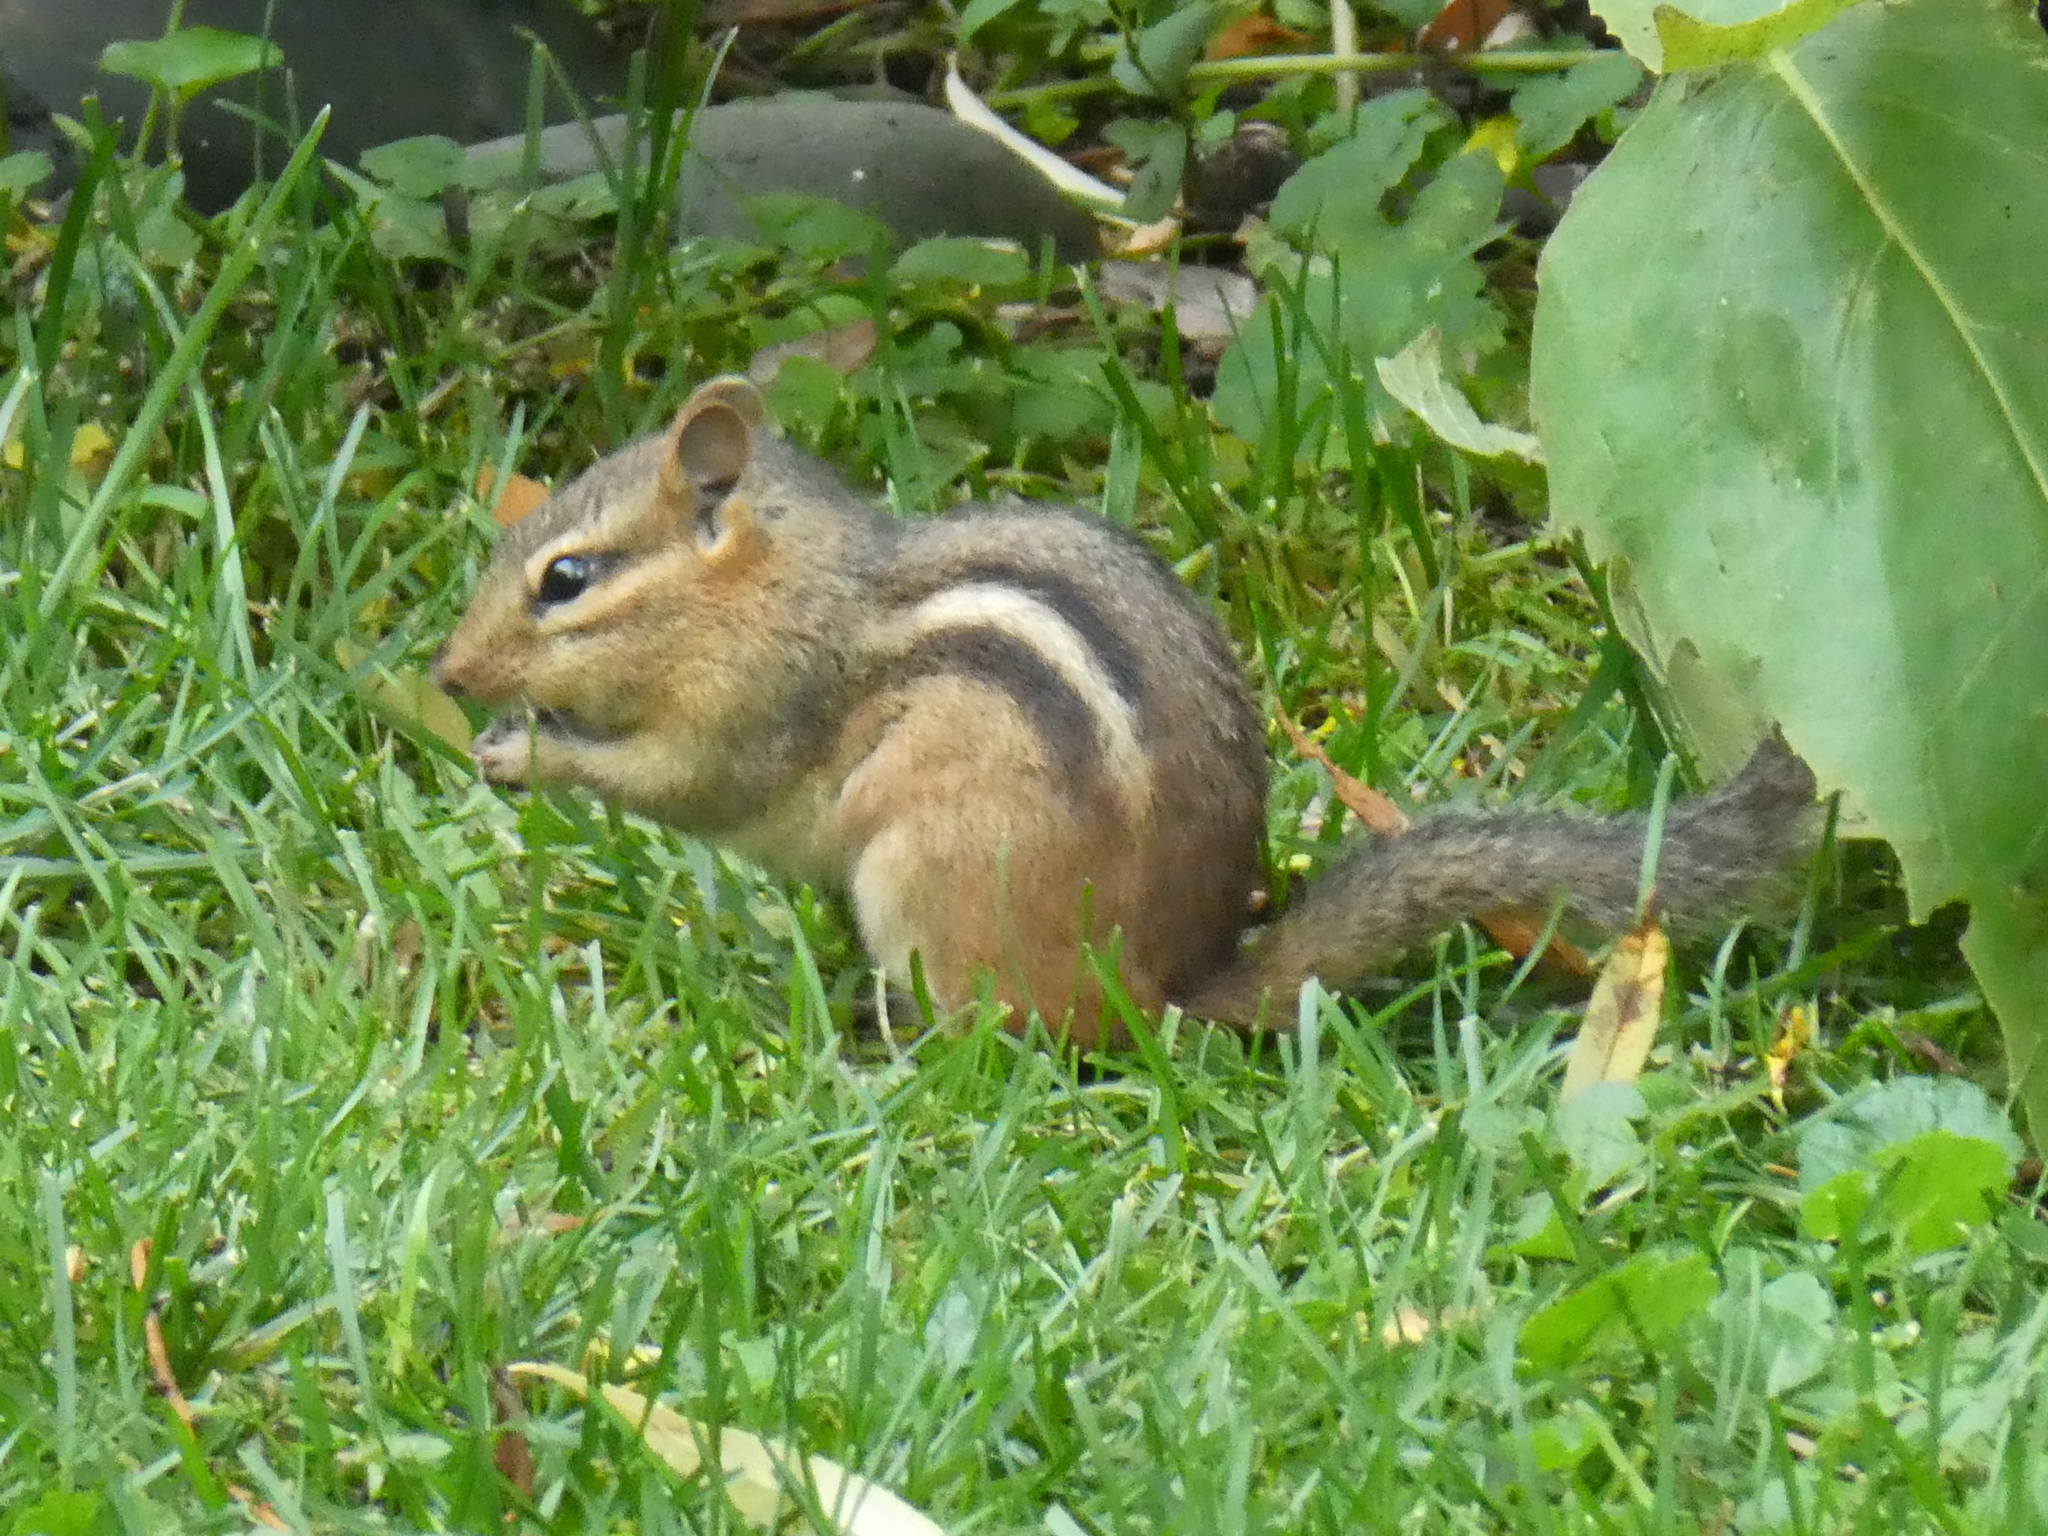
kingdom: Animalia
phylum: Chordata
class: Mammalia
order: Rodentia
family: Sciuridae
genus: Tamias
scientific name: Tamias striatus
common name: Eastern chipmunk
